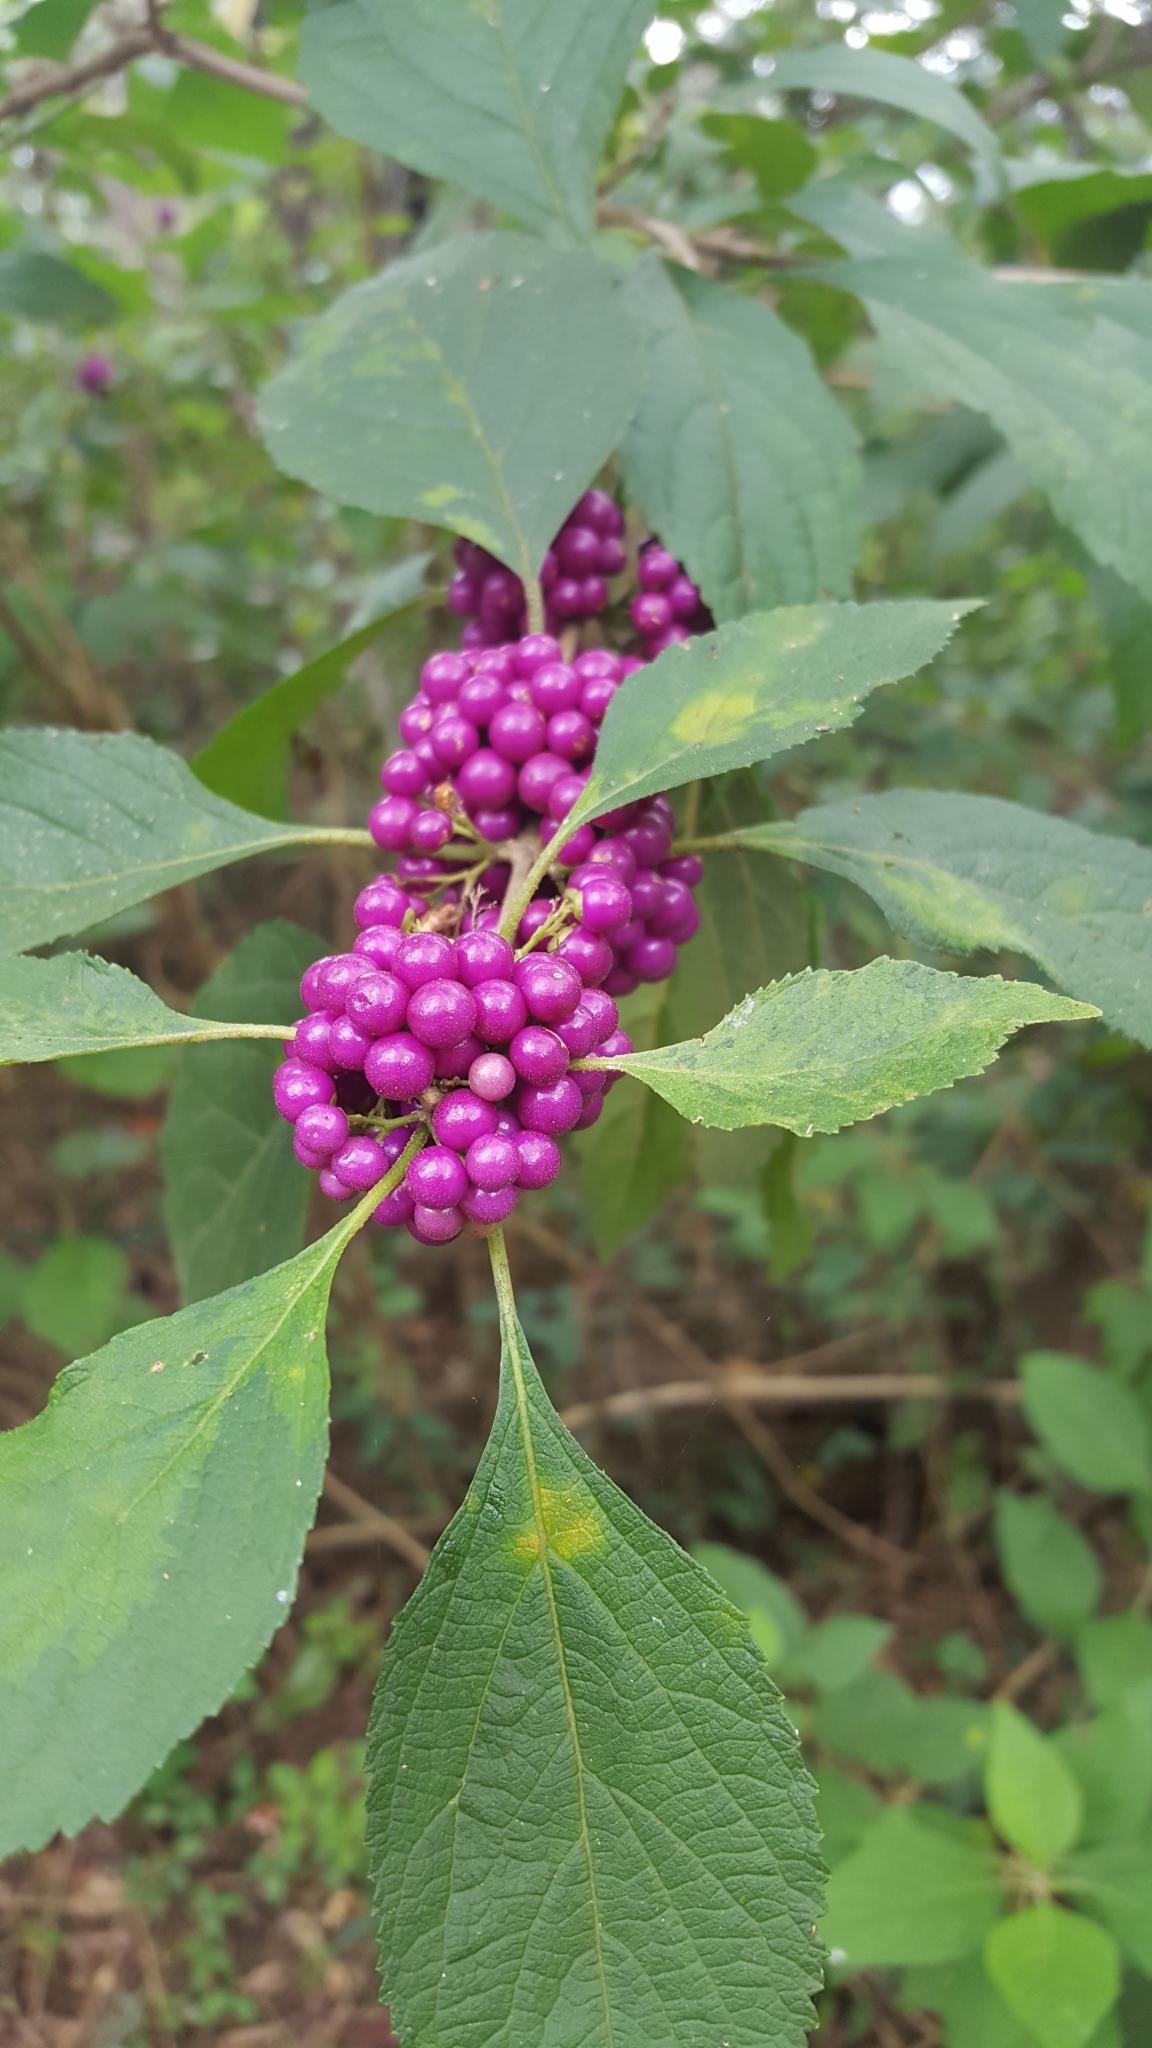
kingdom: Plantae
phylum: Tracheophyta
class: Magnoliopsida
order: Lamiales
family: Lamiaceae
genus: Callicarpa
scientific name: Callicarpa americana
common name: American beautyberry
